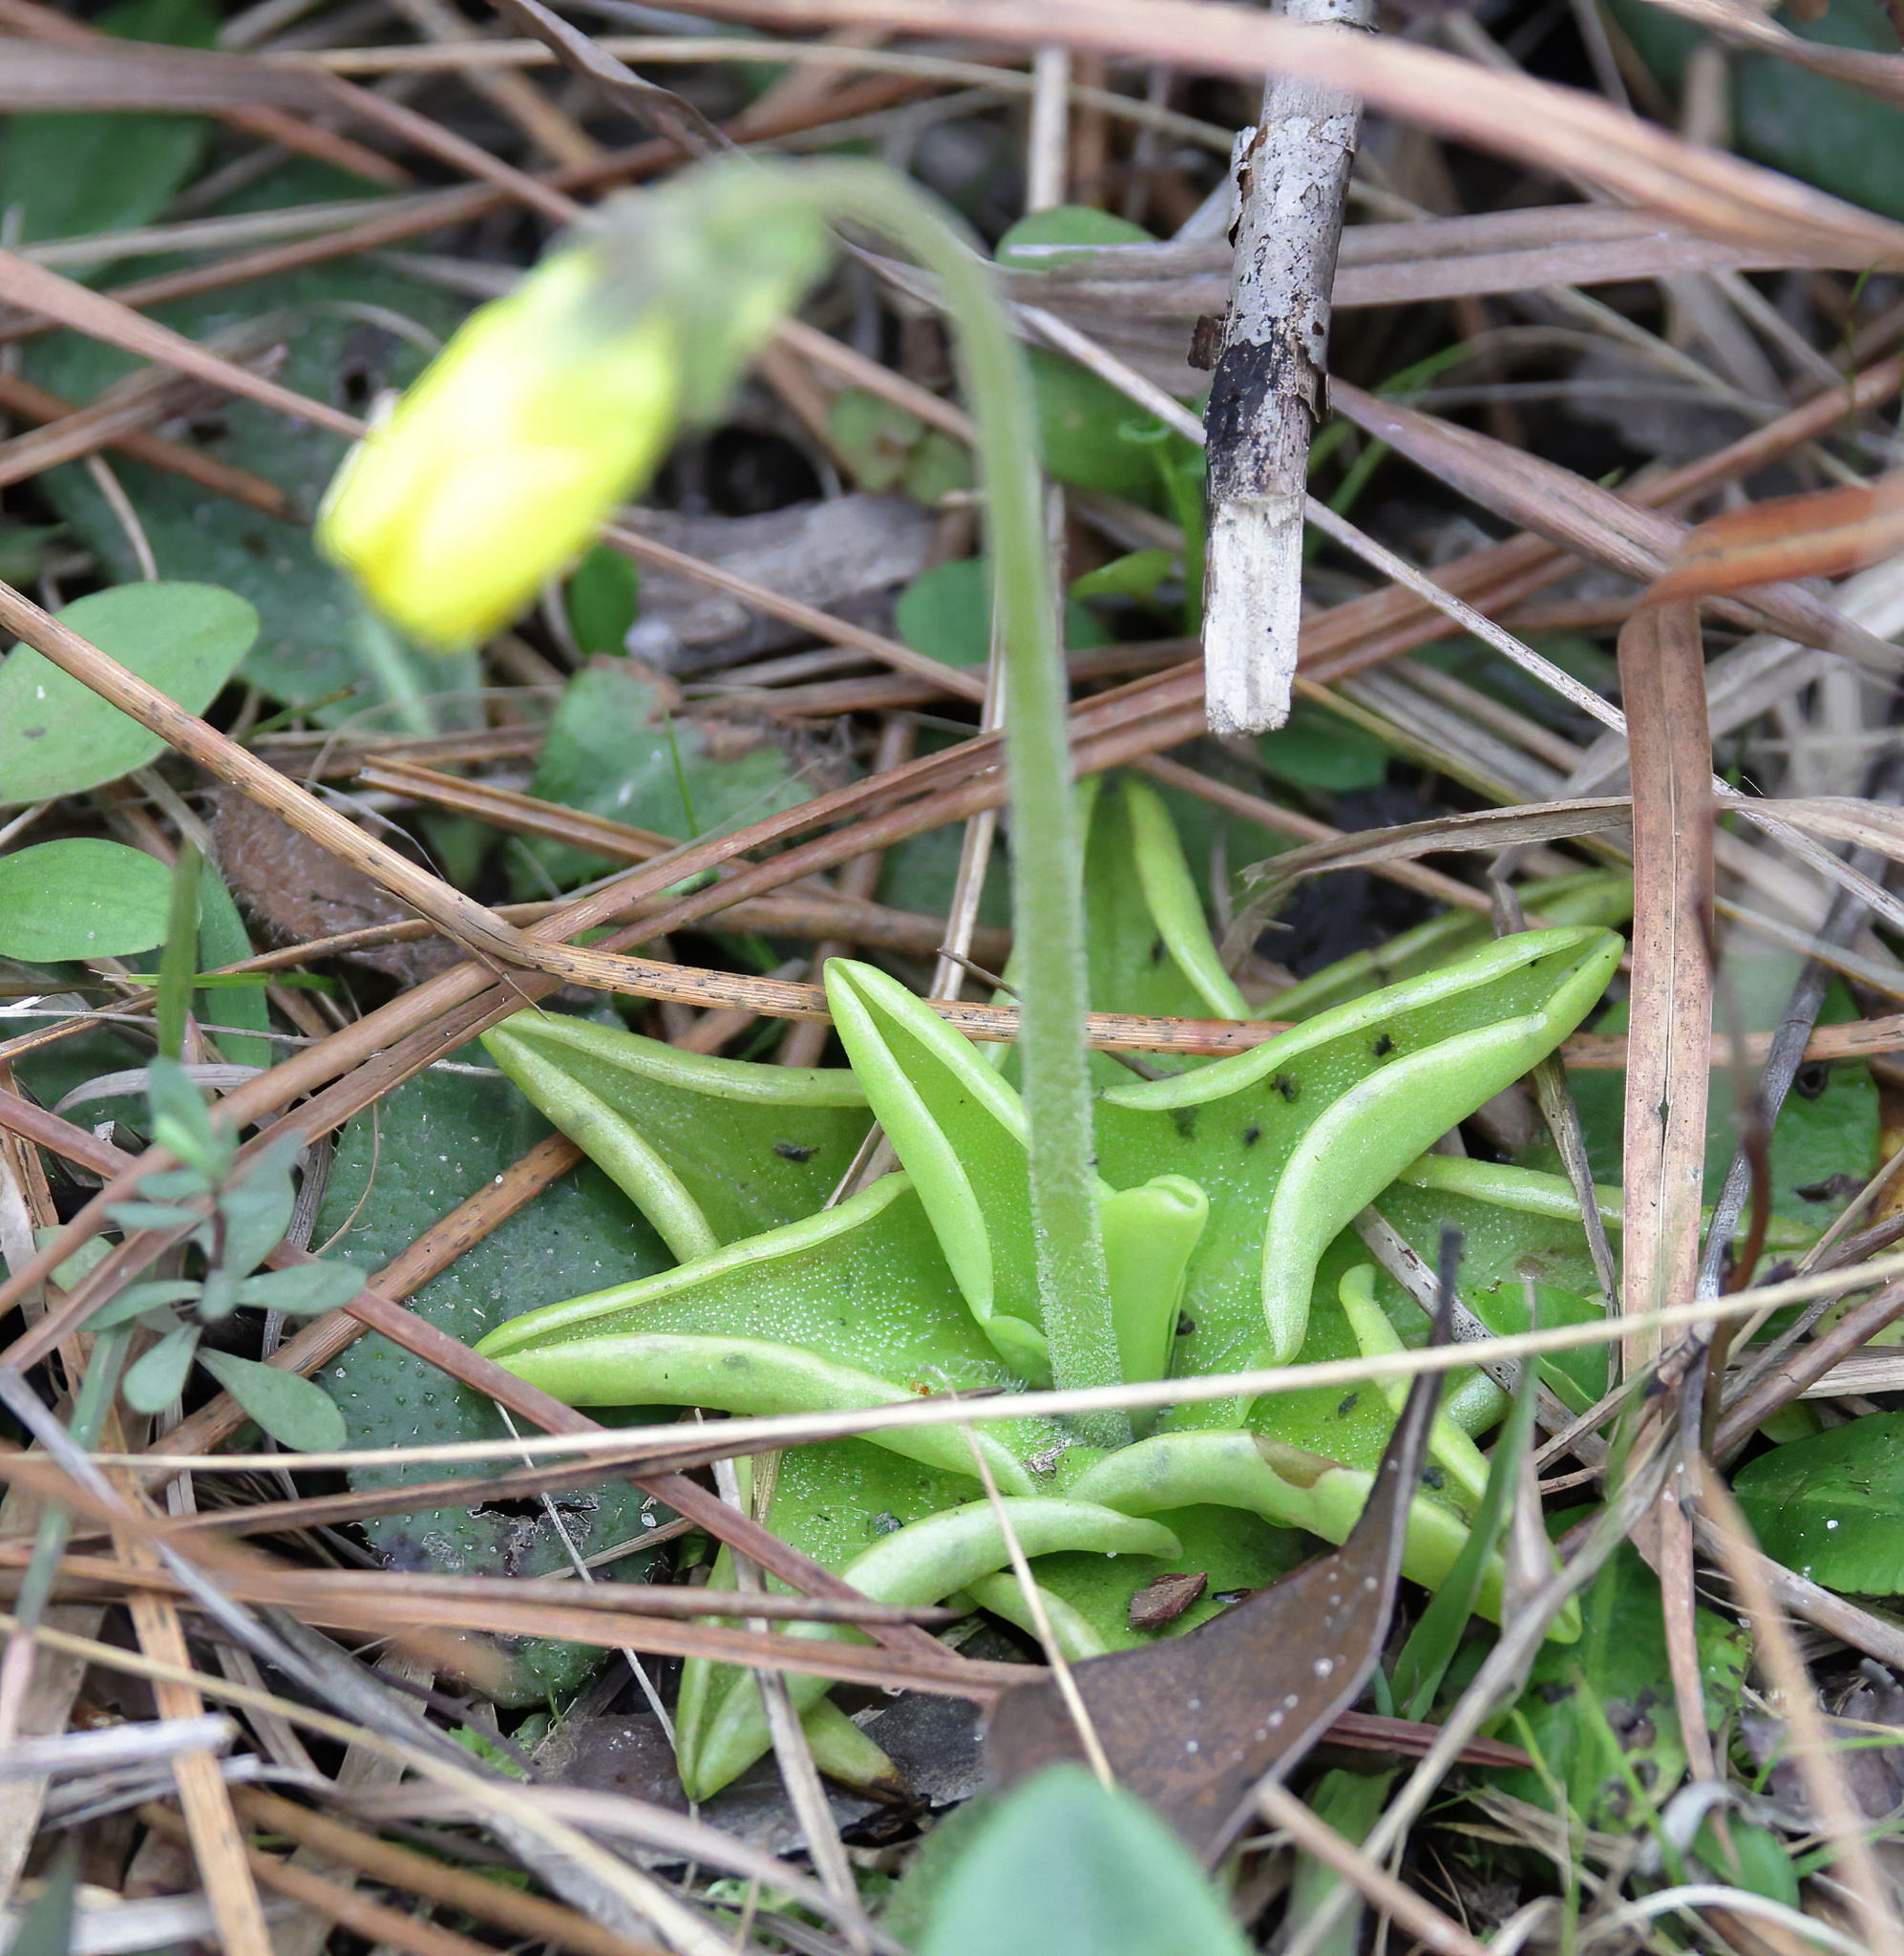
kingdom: Plantae
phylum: Tracheophyta
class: Magnoliopsida
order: Lamiales
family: Lentibulariaceae
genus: Pinguicula
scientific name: Pinguicula lutea
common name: Yellow butterwort
